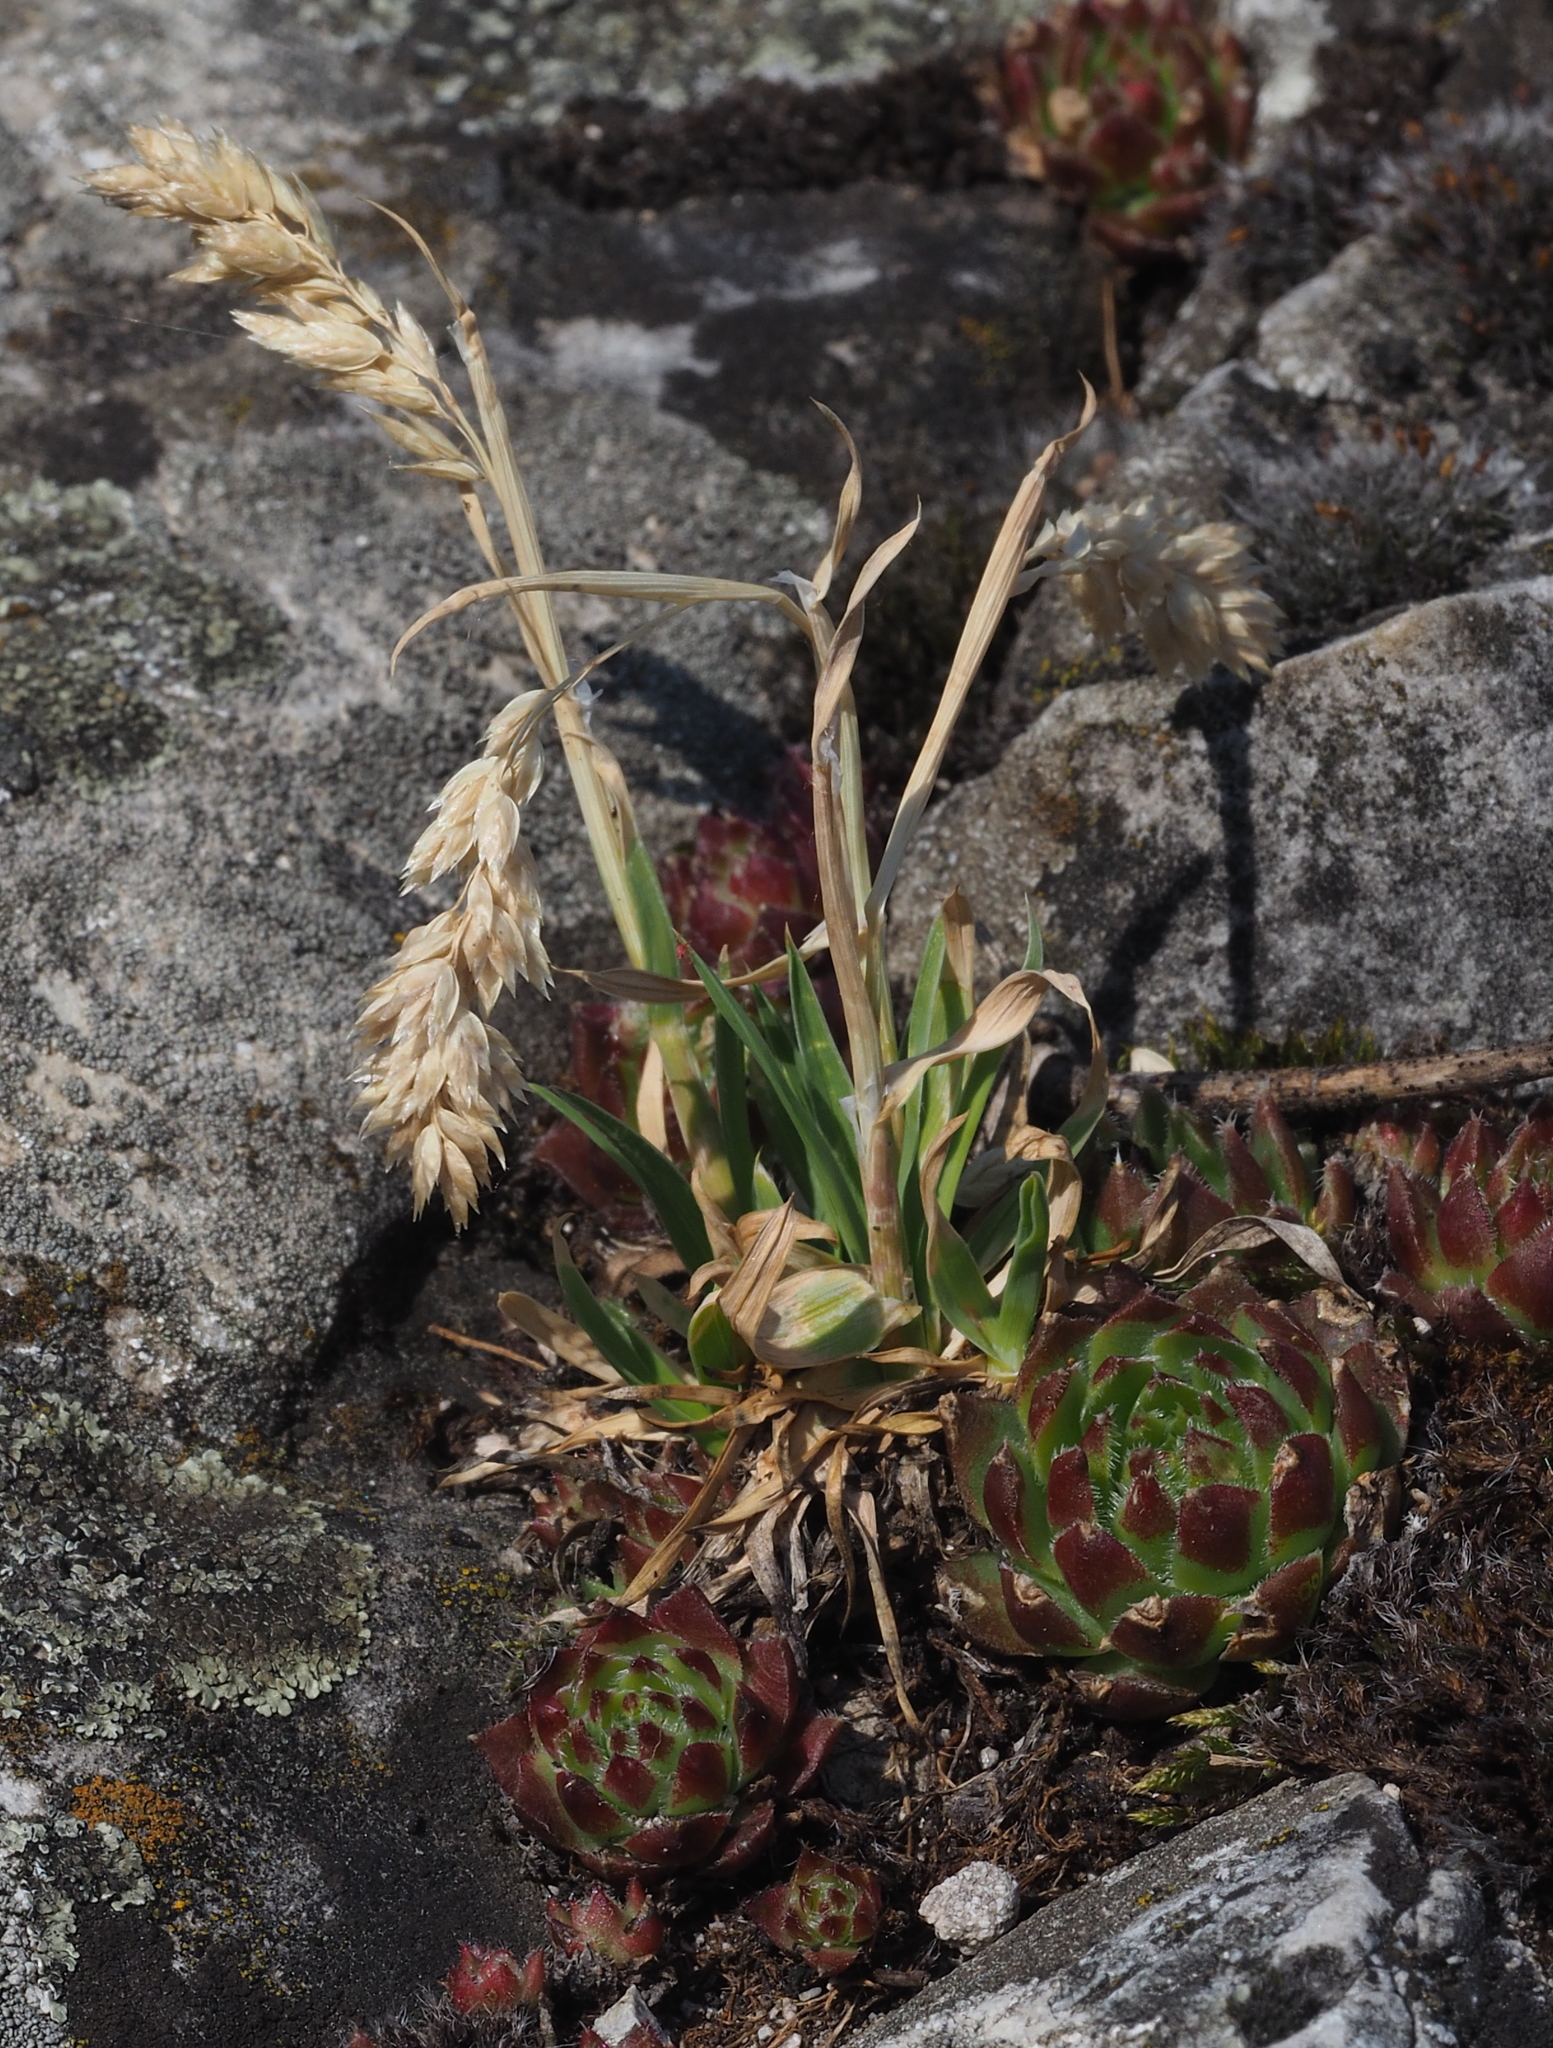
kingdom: Plantae
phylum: Tracheophyta
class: Liliopsida
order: Poales
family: Poaceae
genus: Poa
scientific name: Poa badensis
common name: Baden's bluegrass
